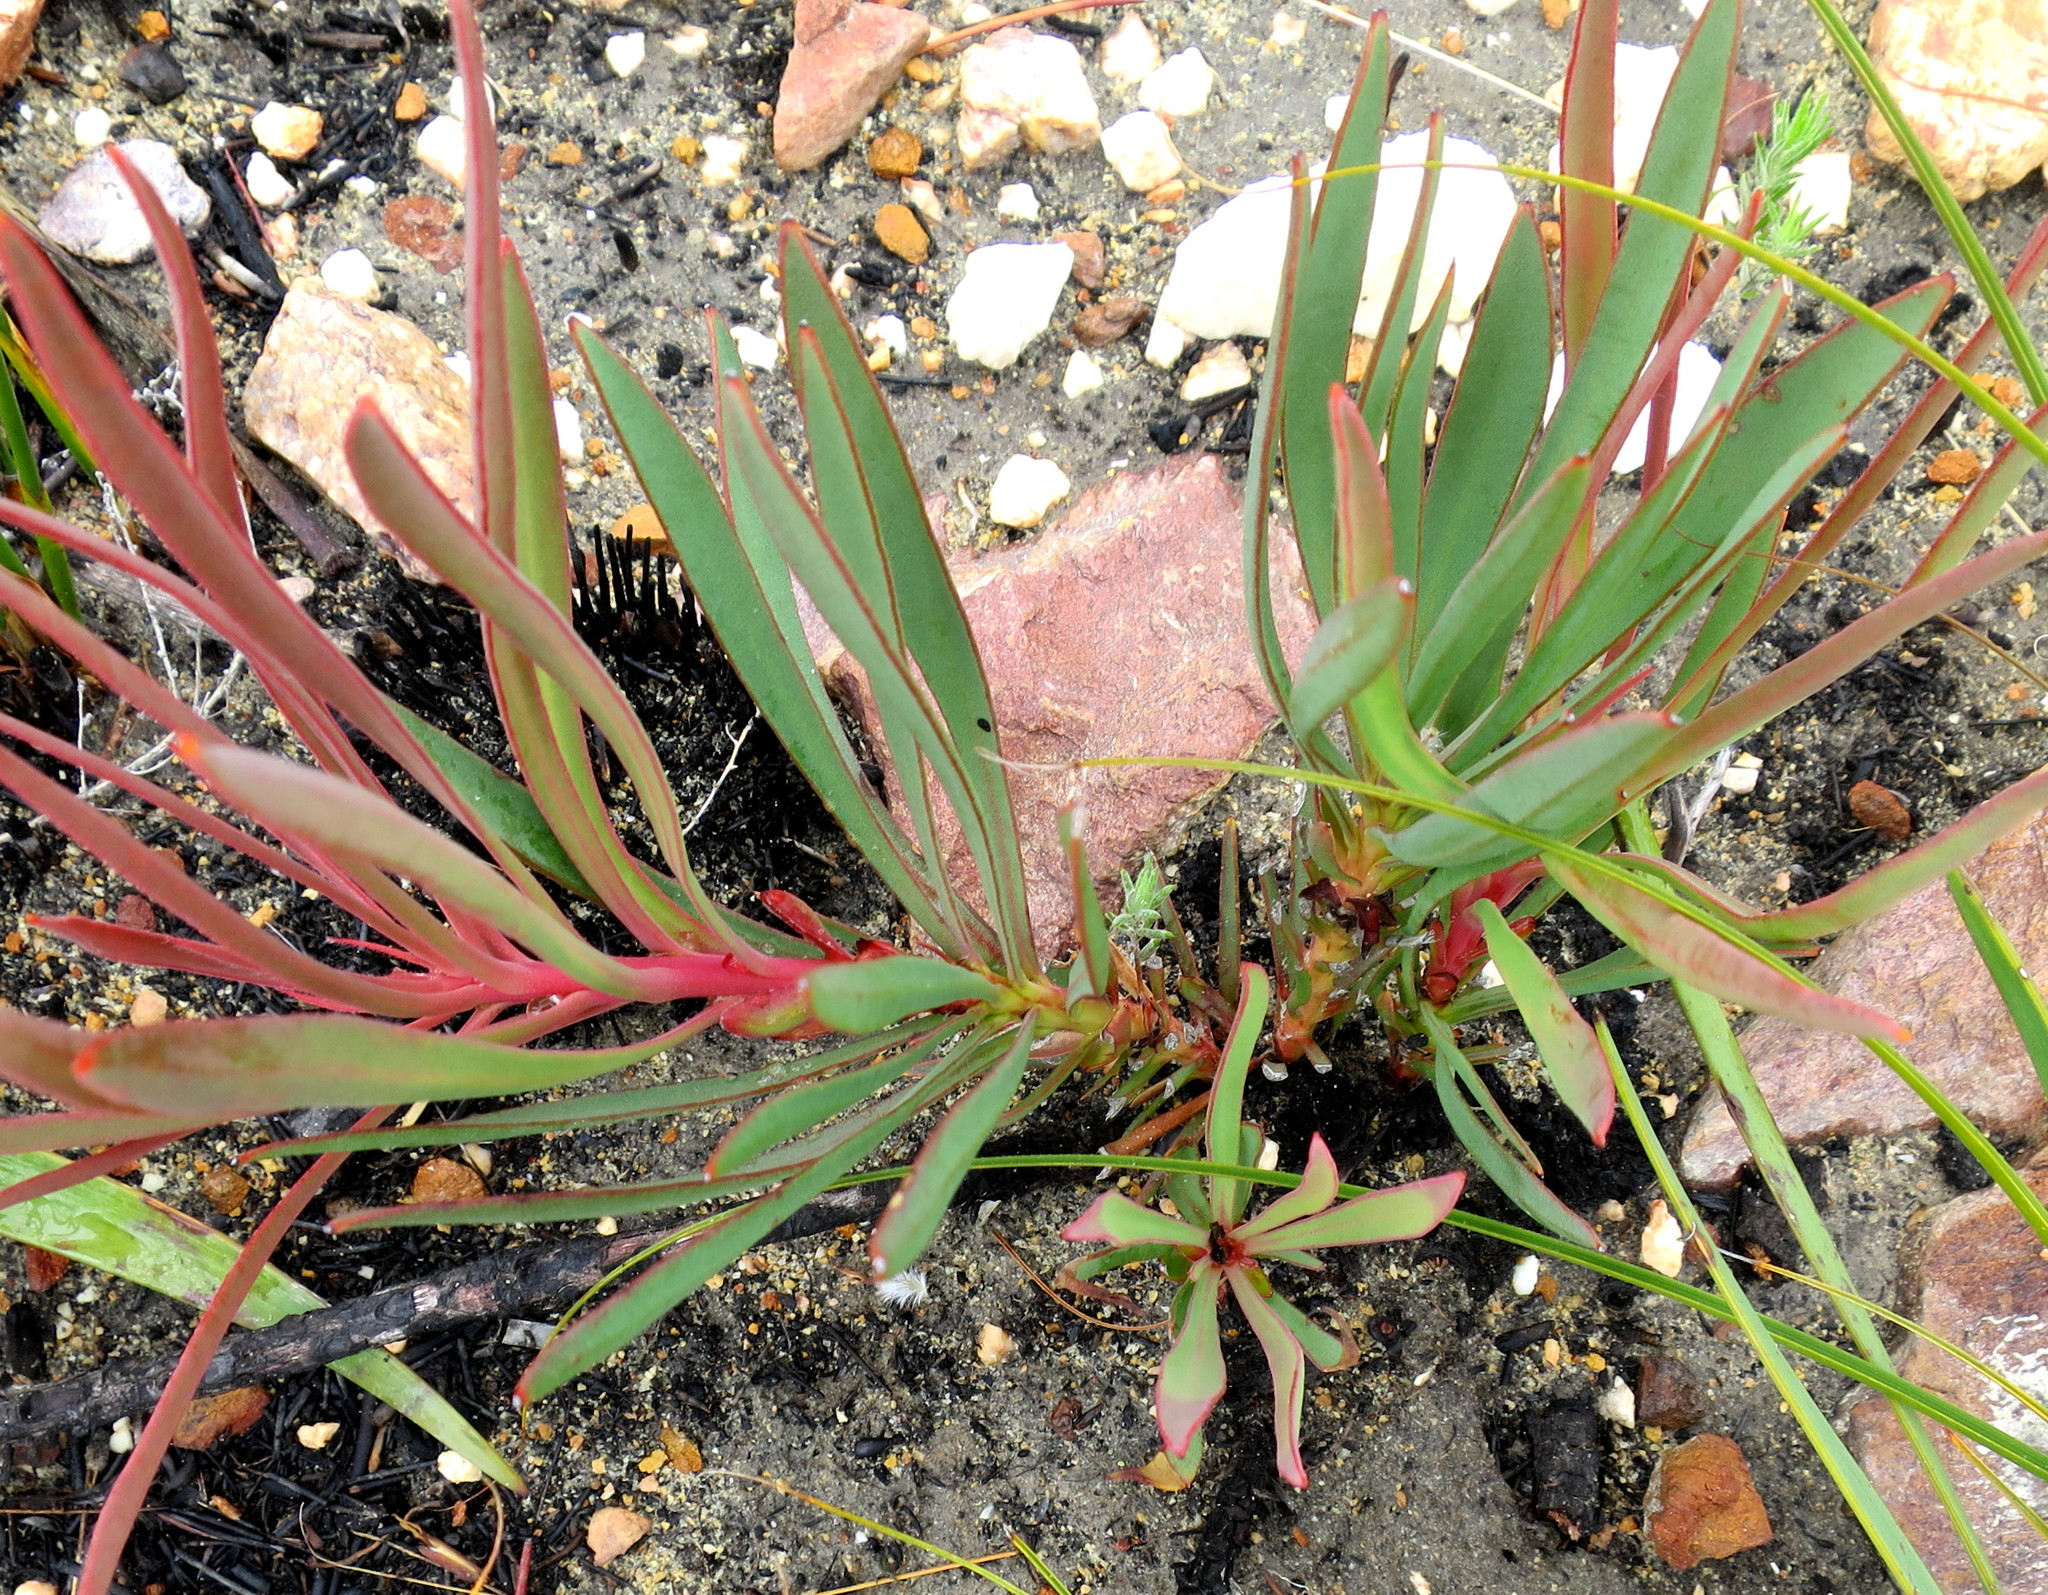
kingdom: Plantae
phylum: Tracheophyta
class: Magnoliopsida
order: Proteales
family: Proteaceae
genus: Protea
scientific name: Protea tenax
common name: Tenacious sugarbush
